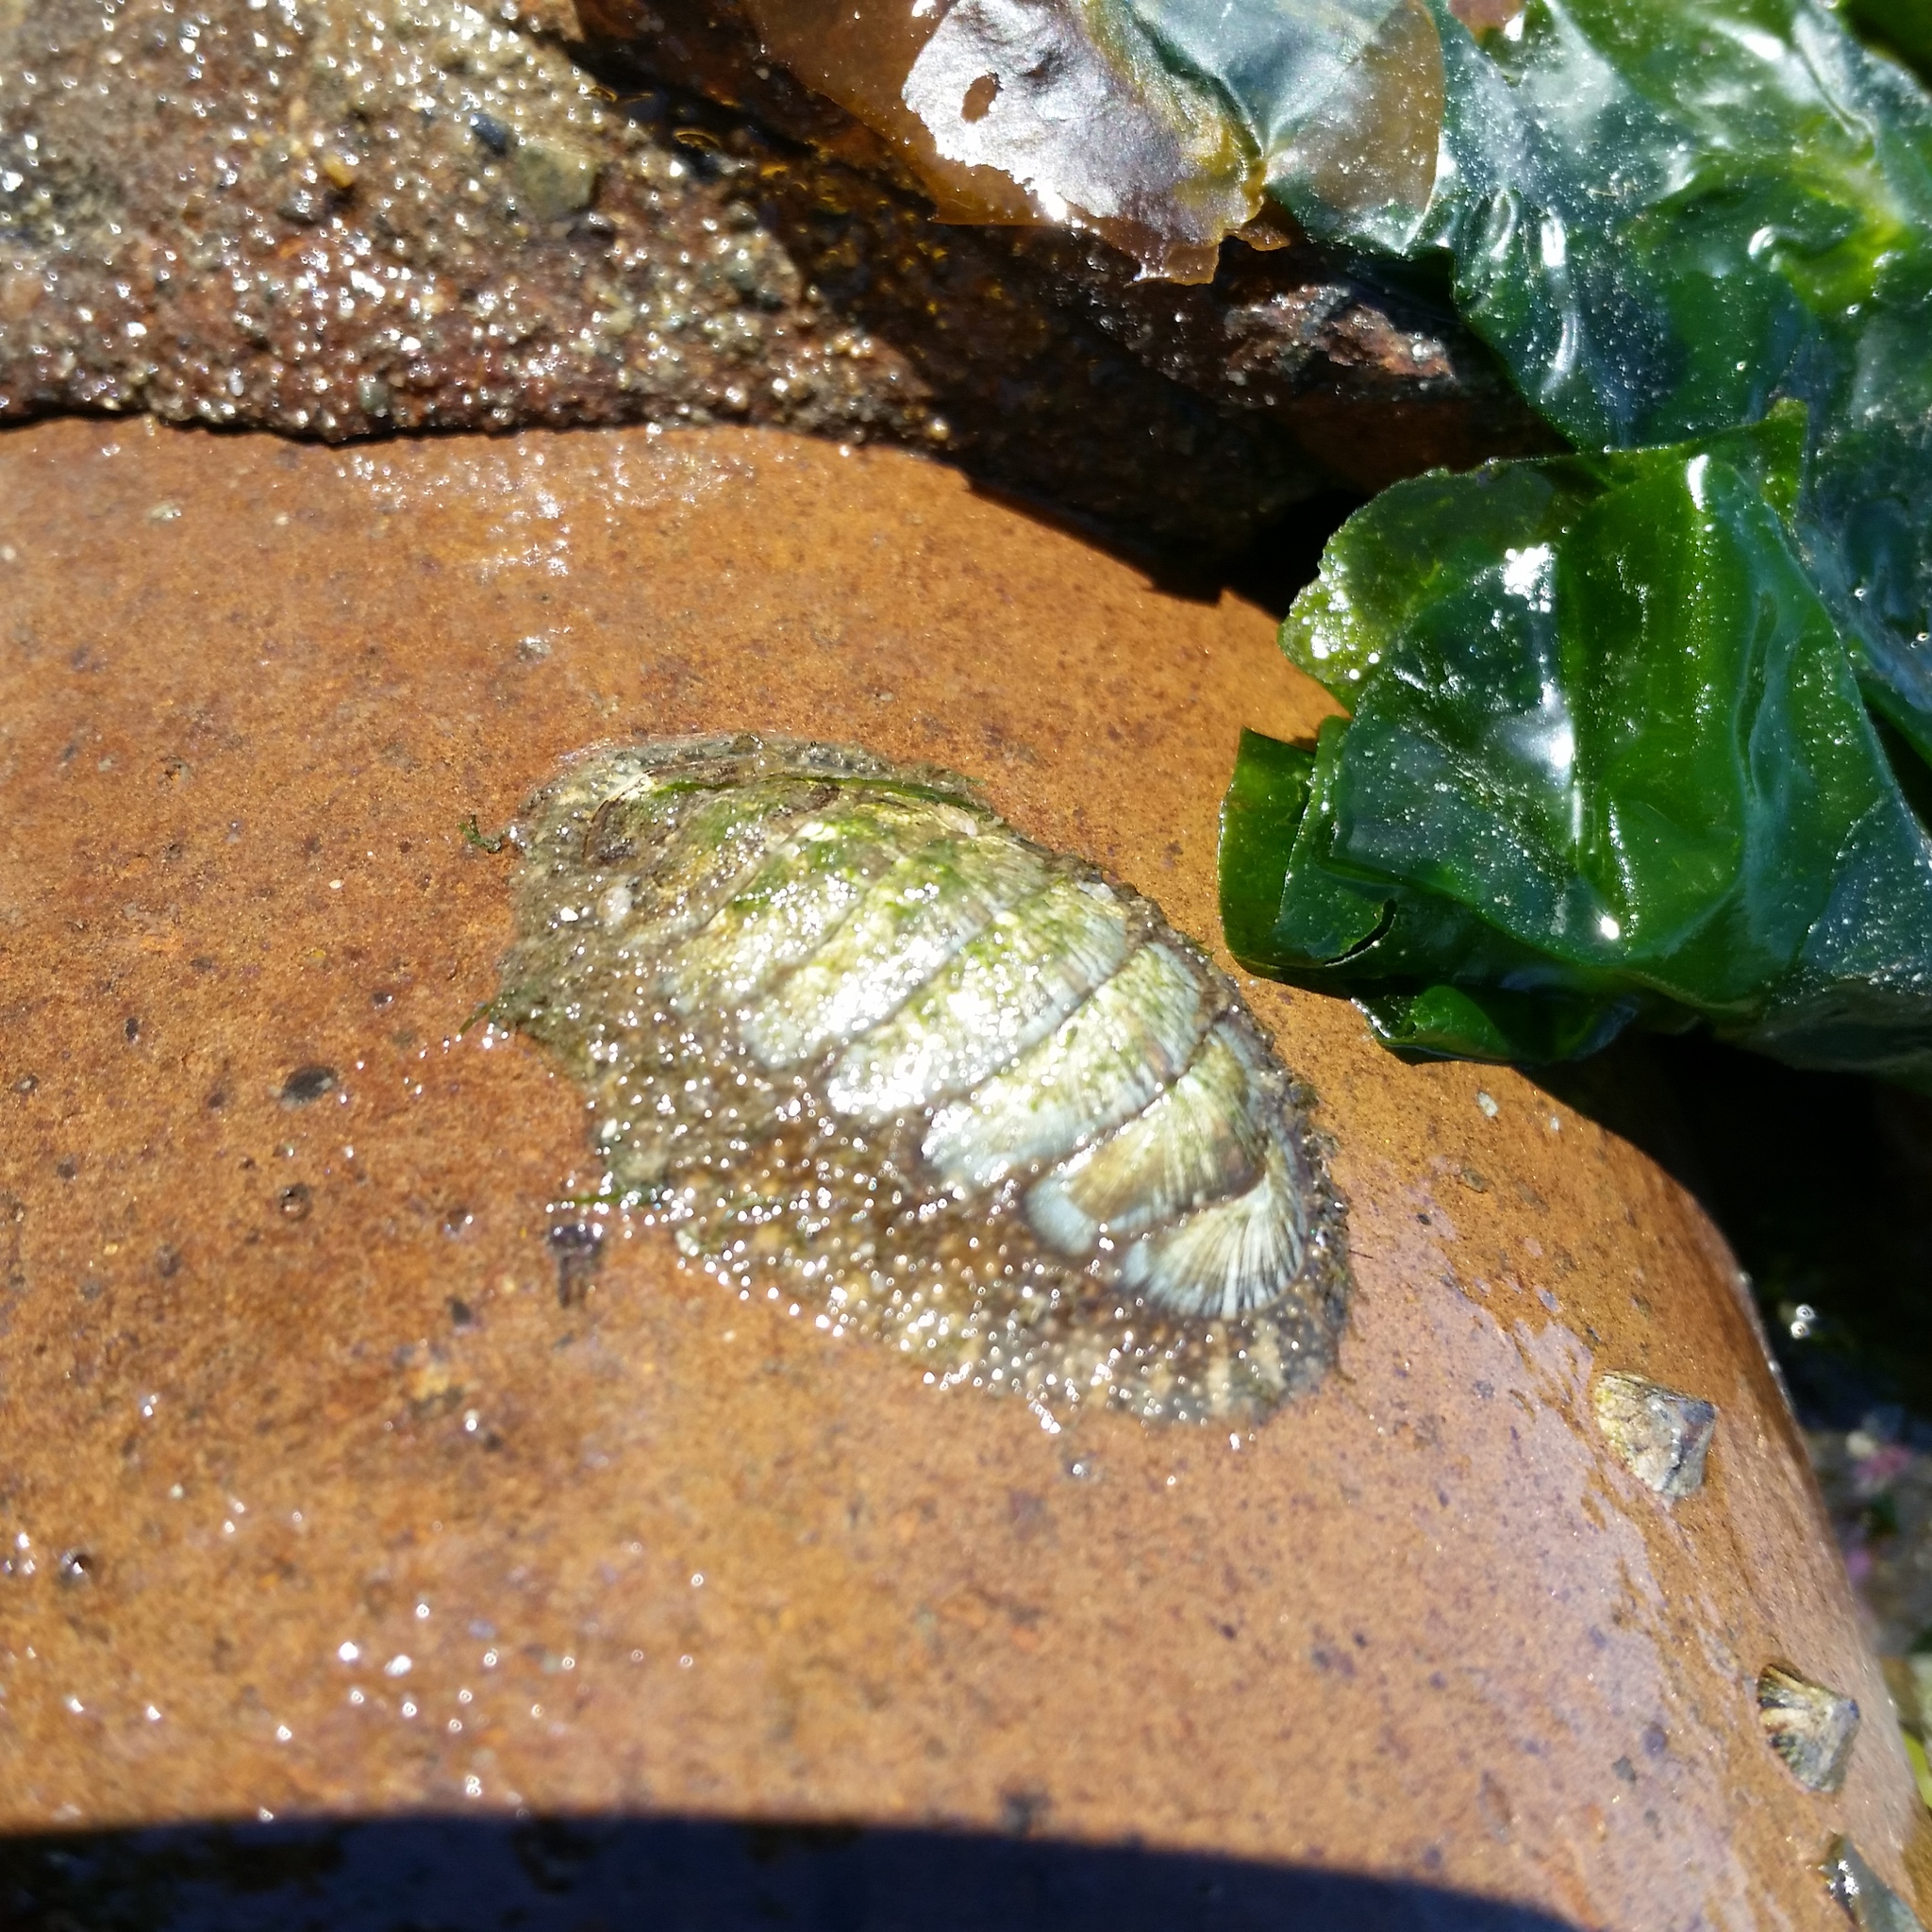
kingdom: Animalia
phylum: Mollusca
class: Polyplacophora
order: Chitonida
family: Mopaliidae
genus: Mopalia
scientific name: Mopalia lignosa
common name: Woody chiton
